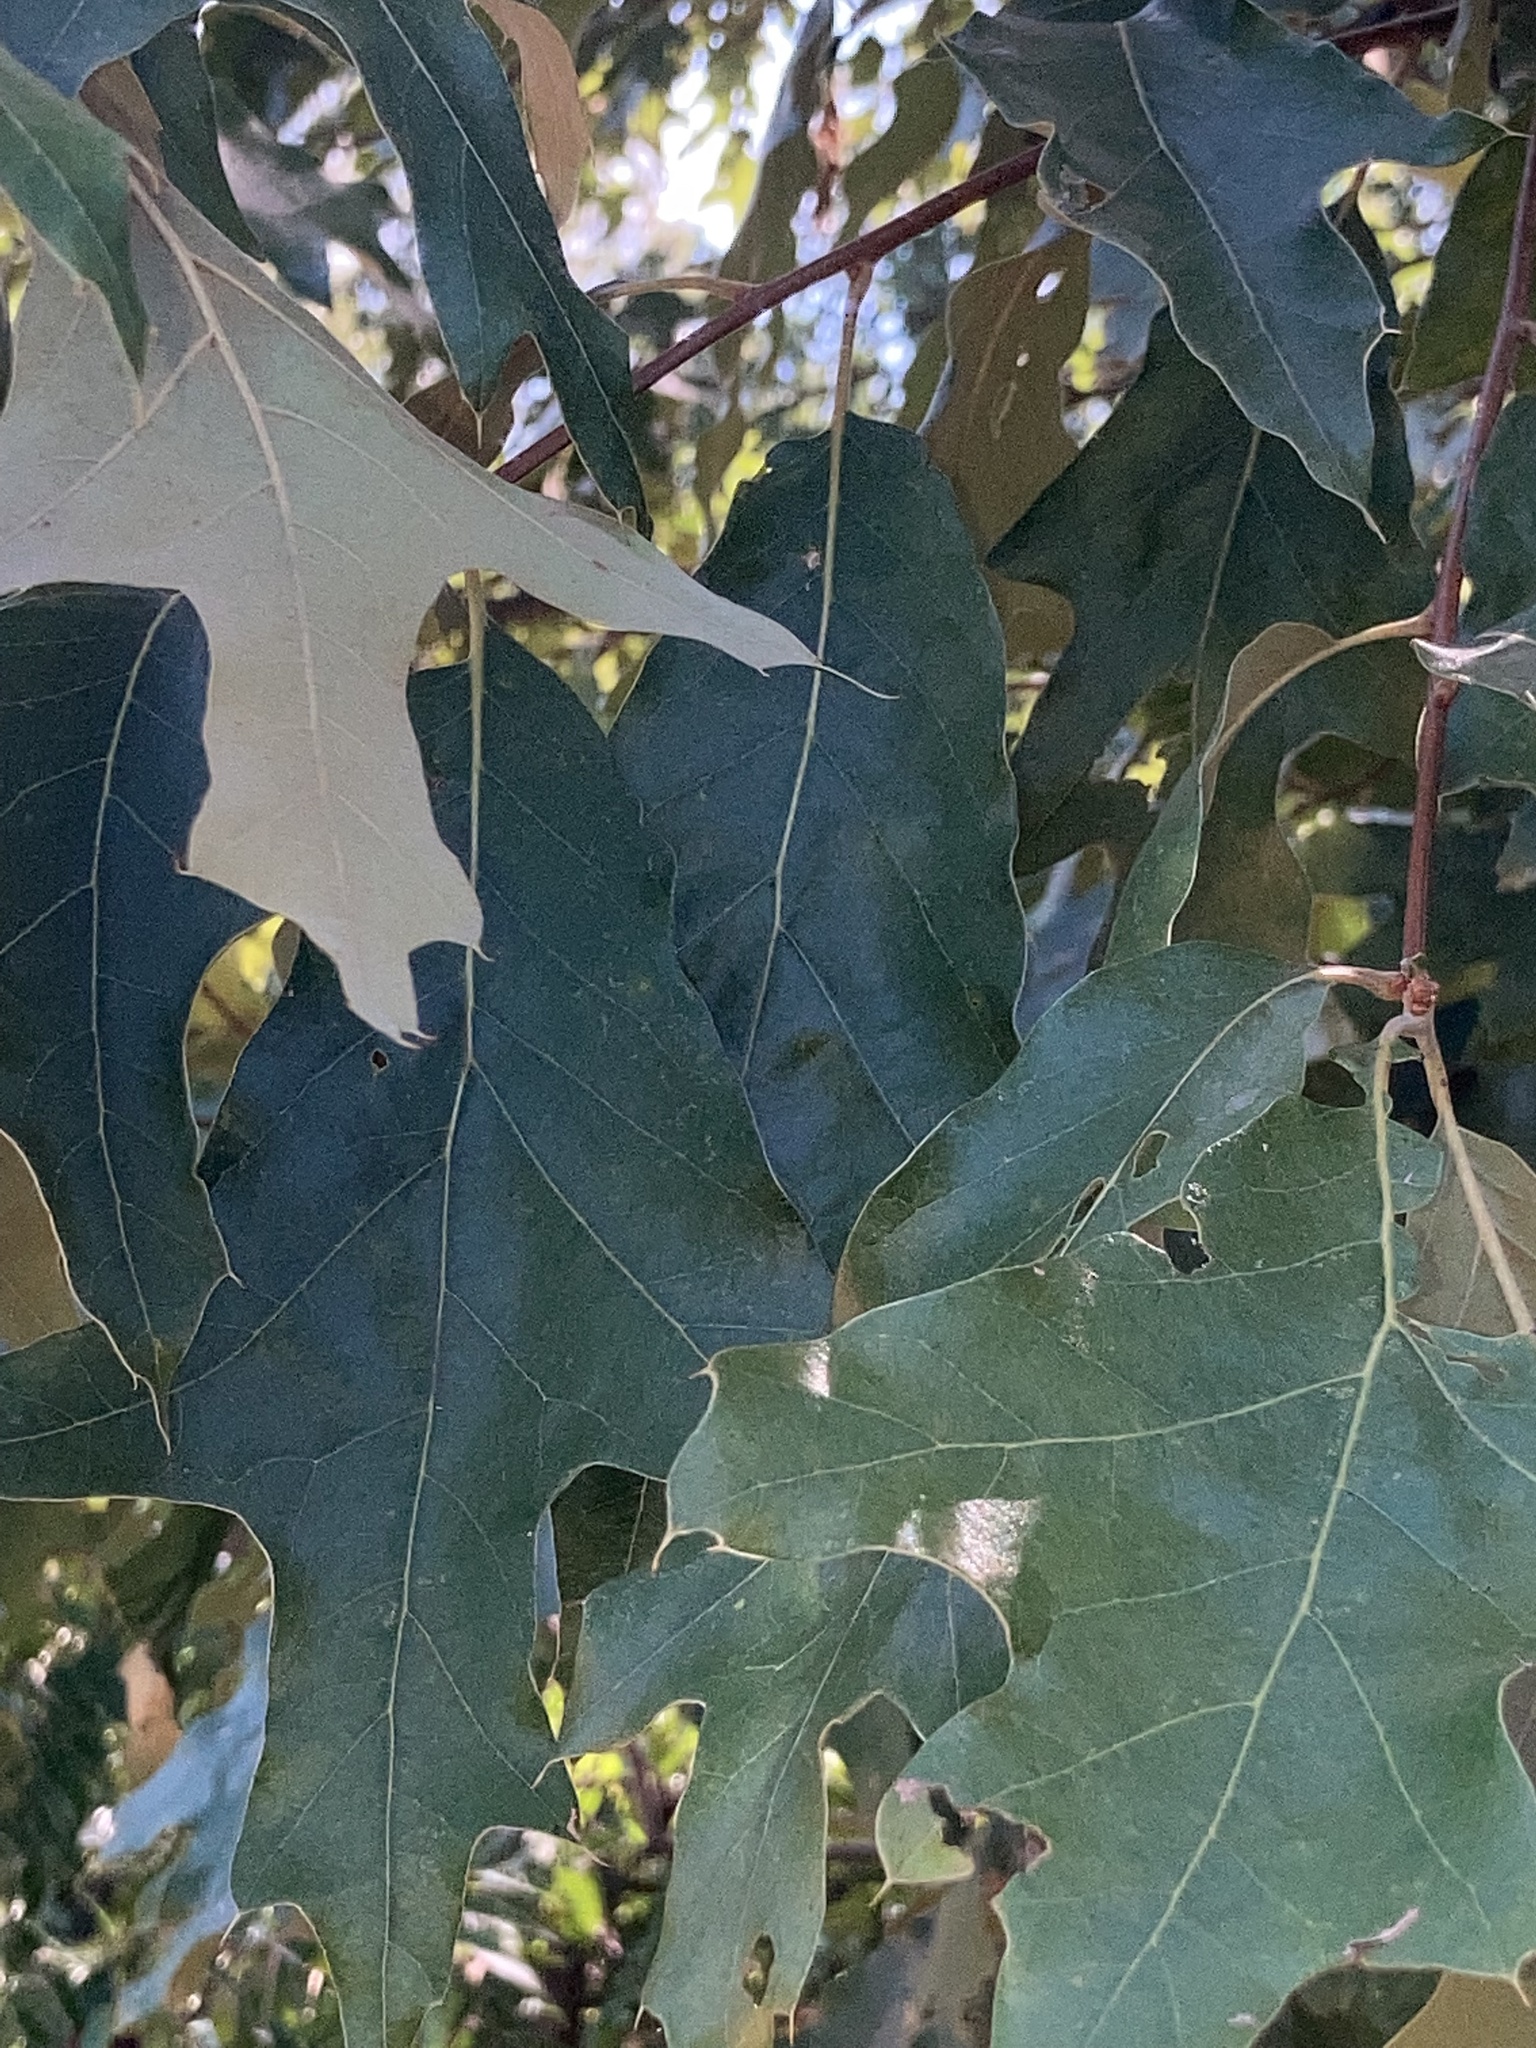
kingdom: Plantae
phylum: Tracheophyta
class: Magnoliopsida
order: Fagales
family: Fagaceae
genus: Quercus
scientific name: Quercus falcata
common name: Southern red oak
